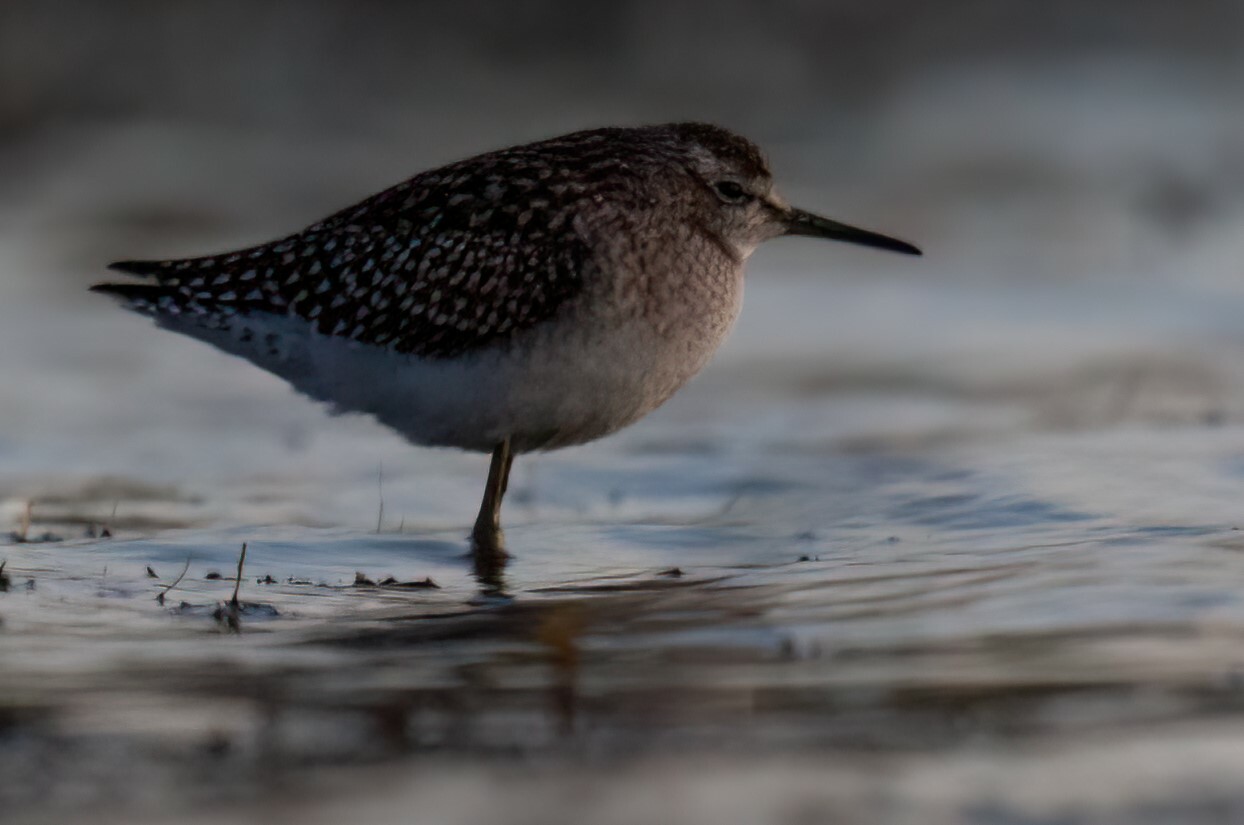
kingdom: Animalia
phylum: Chordata
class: Aves
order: Charadriiformes
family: Scolopacidae
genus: Tringa
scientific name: Tringa glareola
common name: Wood sandpiper
